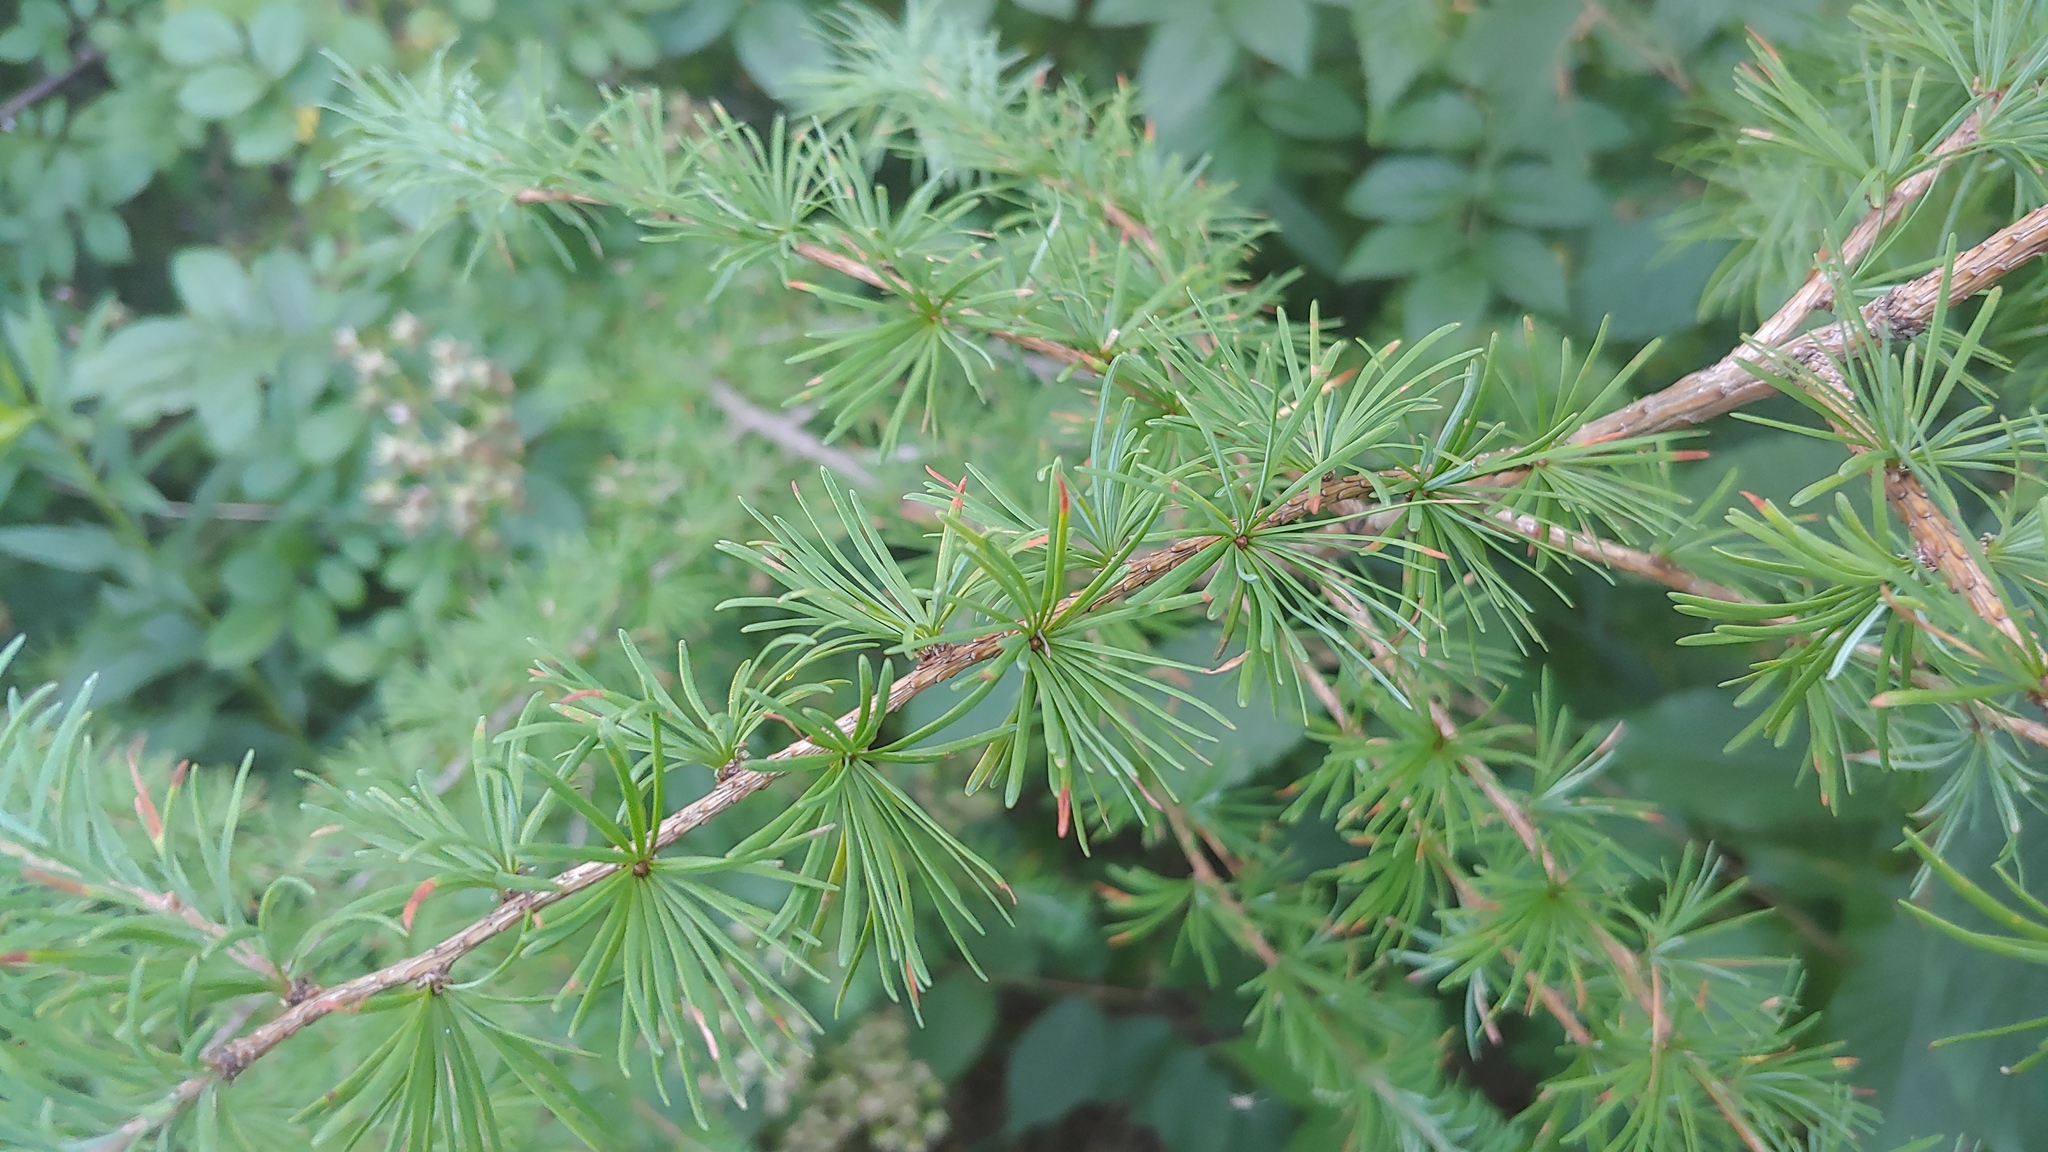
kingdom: Plantae
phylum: Tracheophyta
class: Pinopsida
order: Pinales
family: Pinaceae
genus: Larix
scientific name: Larix kaempferi
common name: Japanese larch
